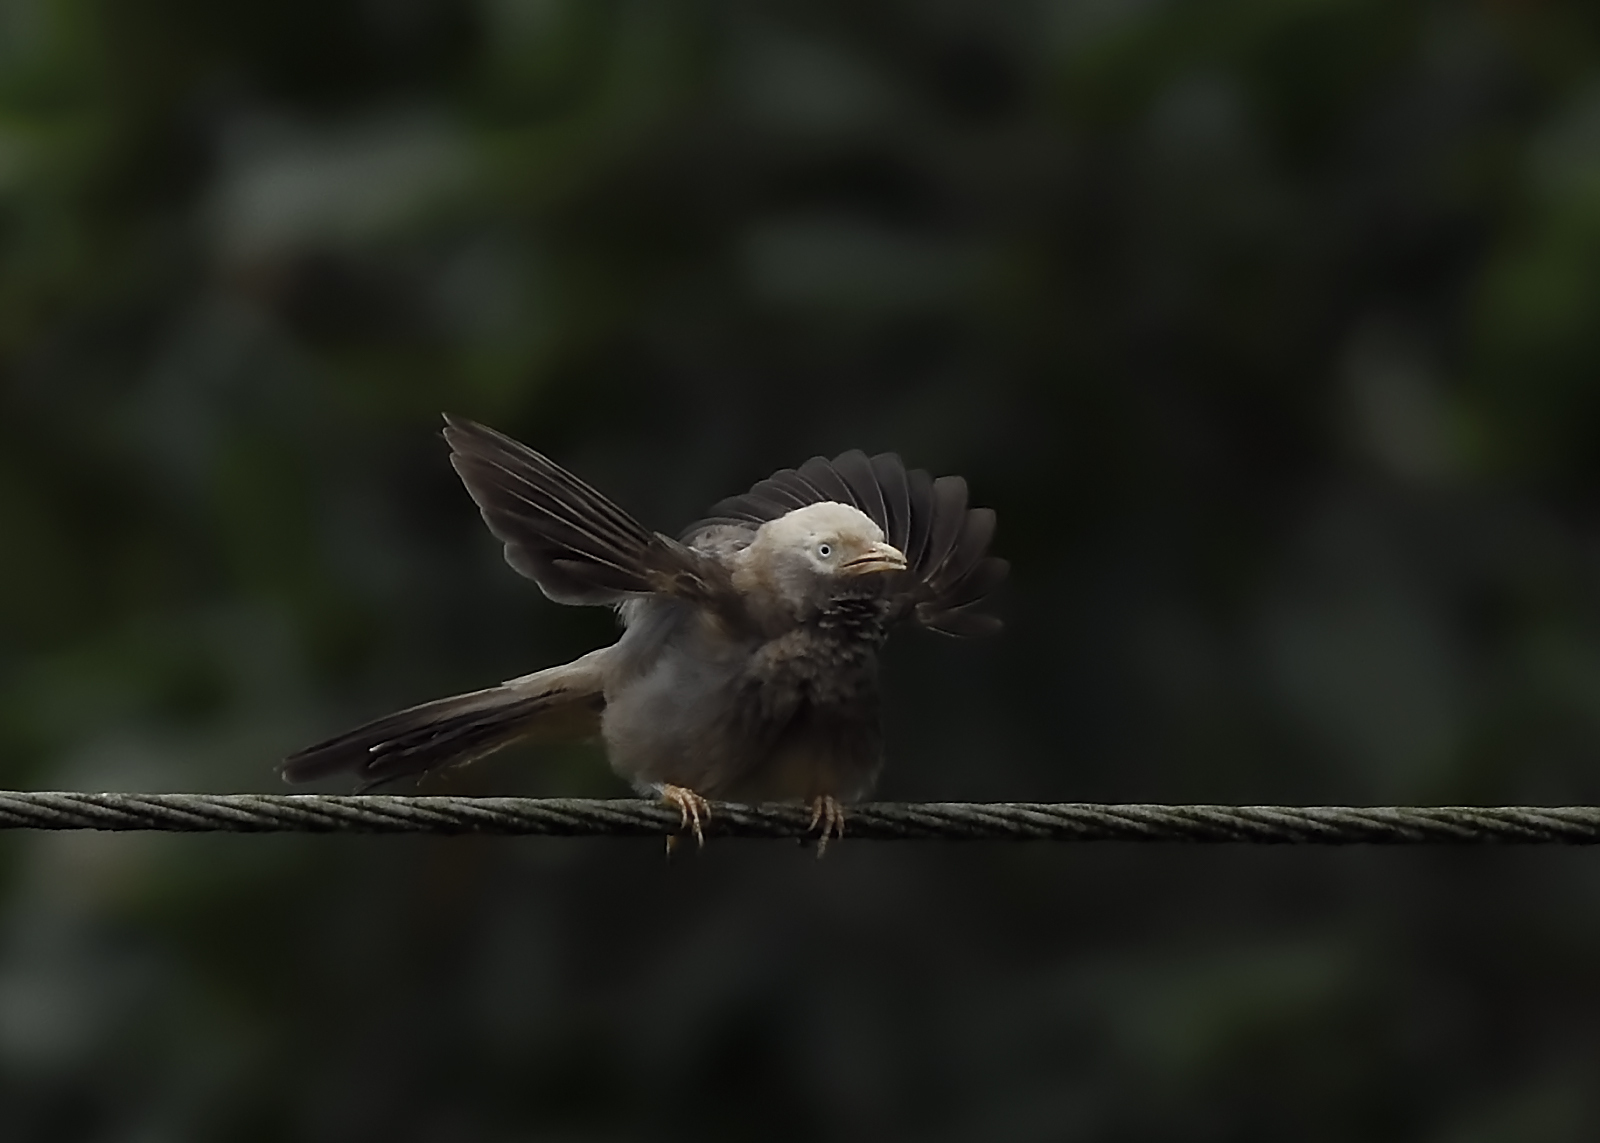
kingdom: Animalia
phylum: Chordata
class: Aves
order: Passeriformes
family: Leiothrichidae
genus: Turdoides
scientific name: Turdoides affinis
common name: Yellow-billed babbler
